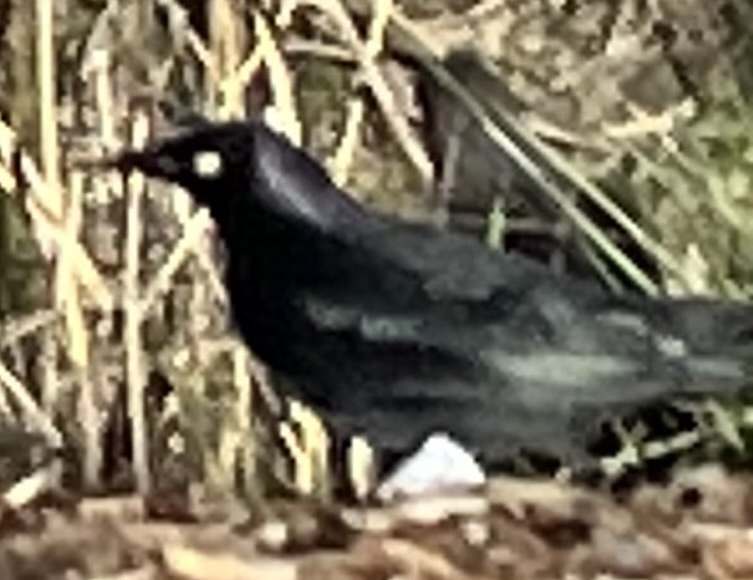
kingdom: Animalia
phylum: Chordata
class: Aves
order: Passeriformes
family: Icteridae
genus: Euphagus
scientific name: Euphagus cyanocephalus
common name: Brewer's blackbird
